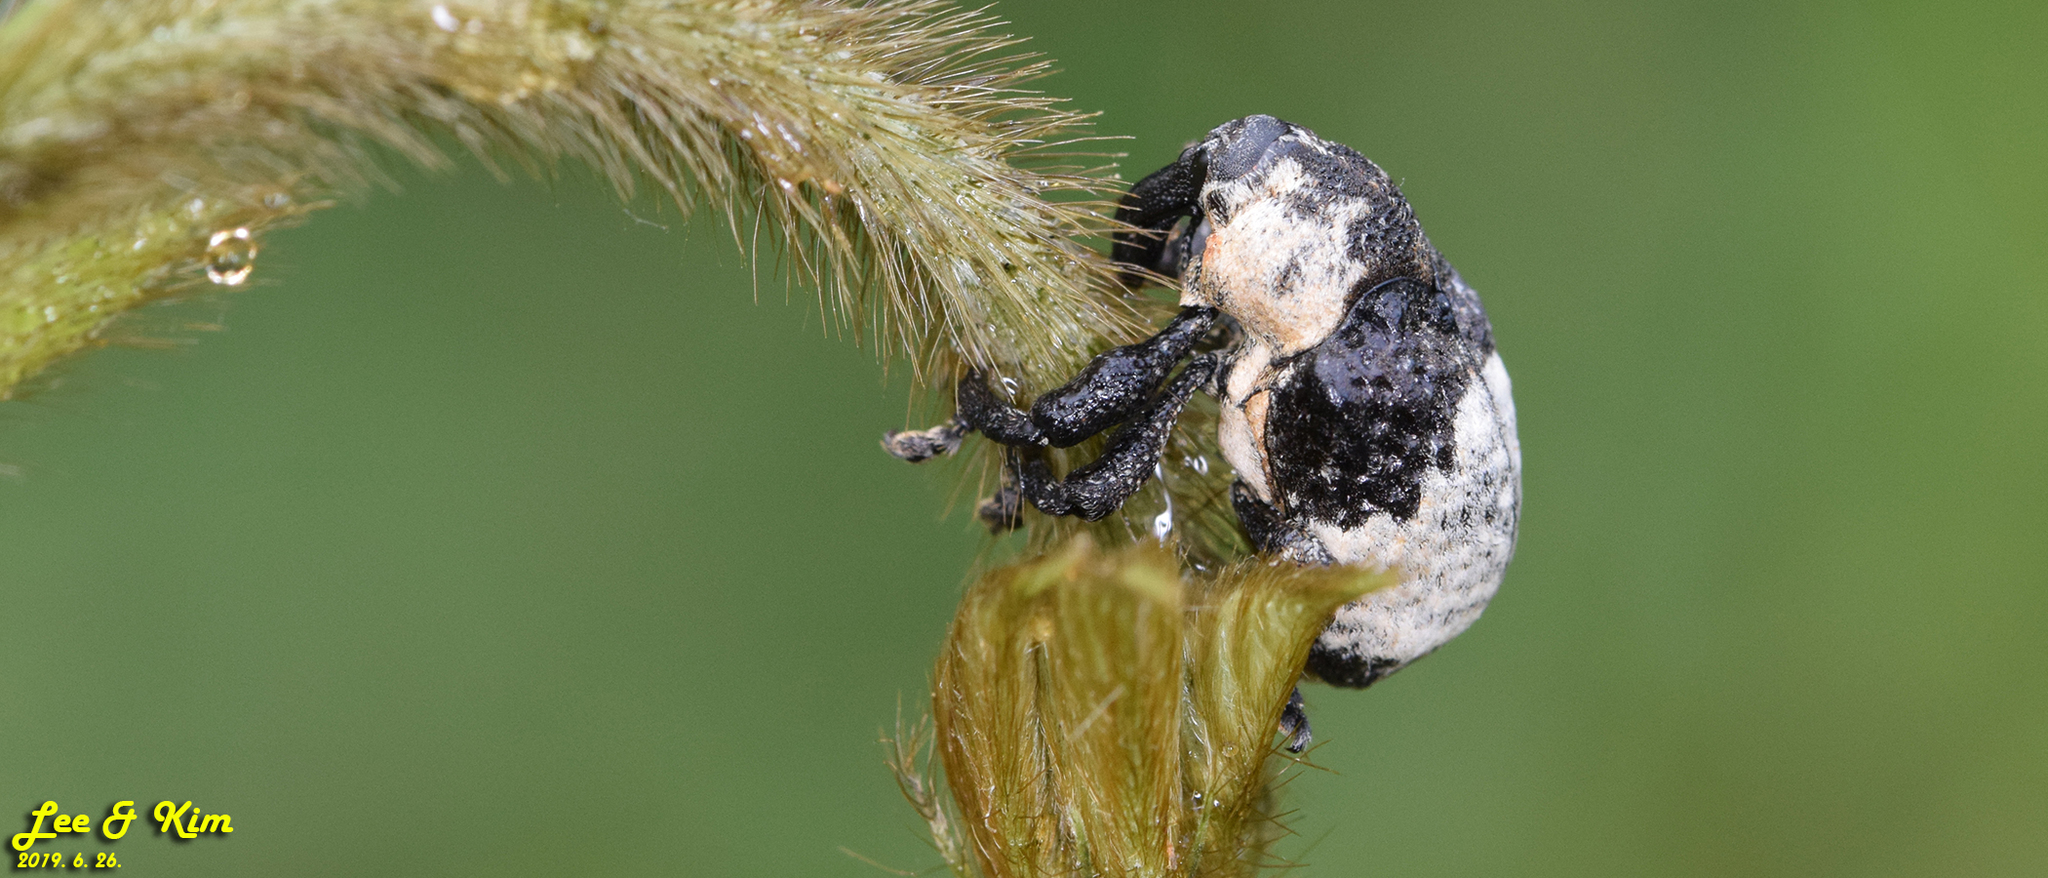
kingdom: Animalia
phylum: Arthropoda
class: Insecta
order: Coleoptera
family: Curculionidae
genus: Alcides
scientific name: Alcides trifidus
